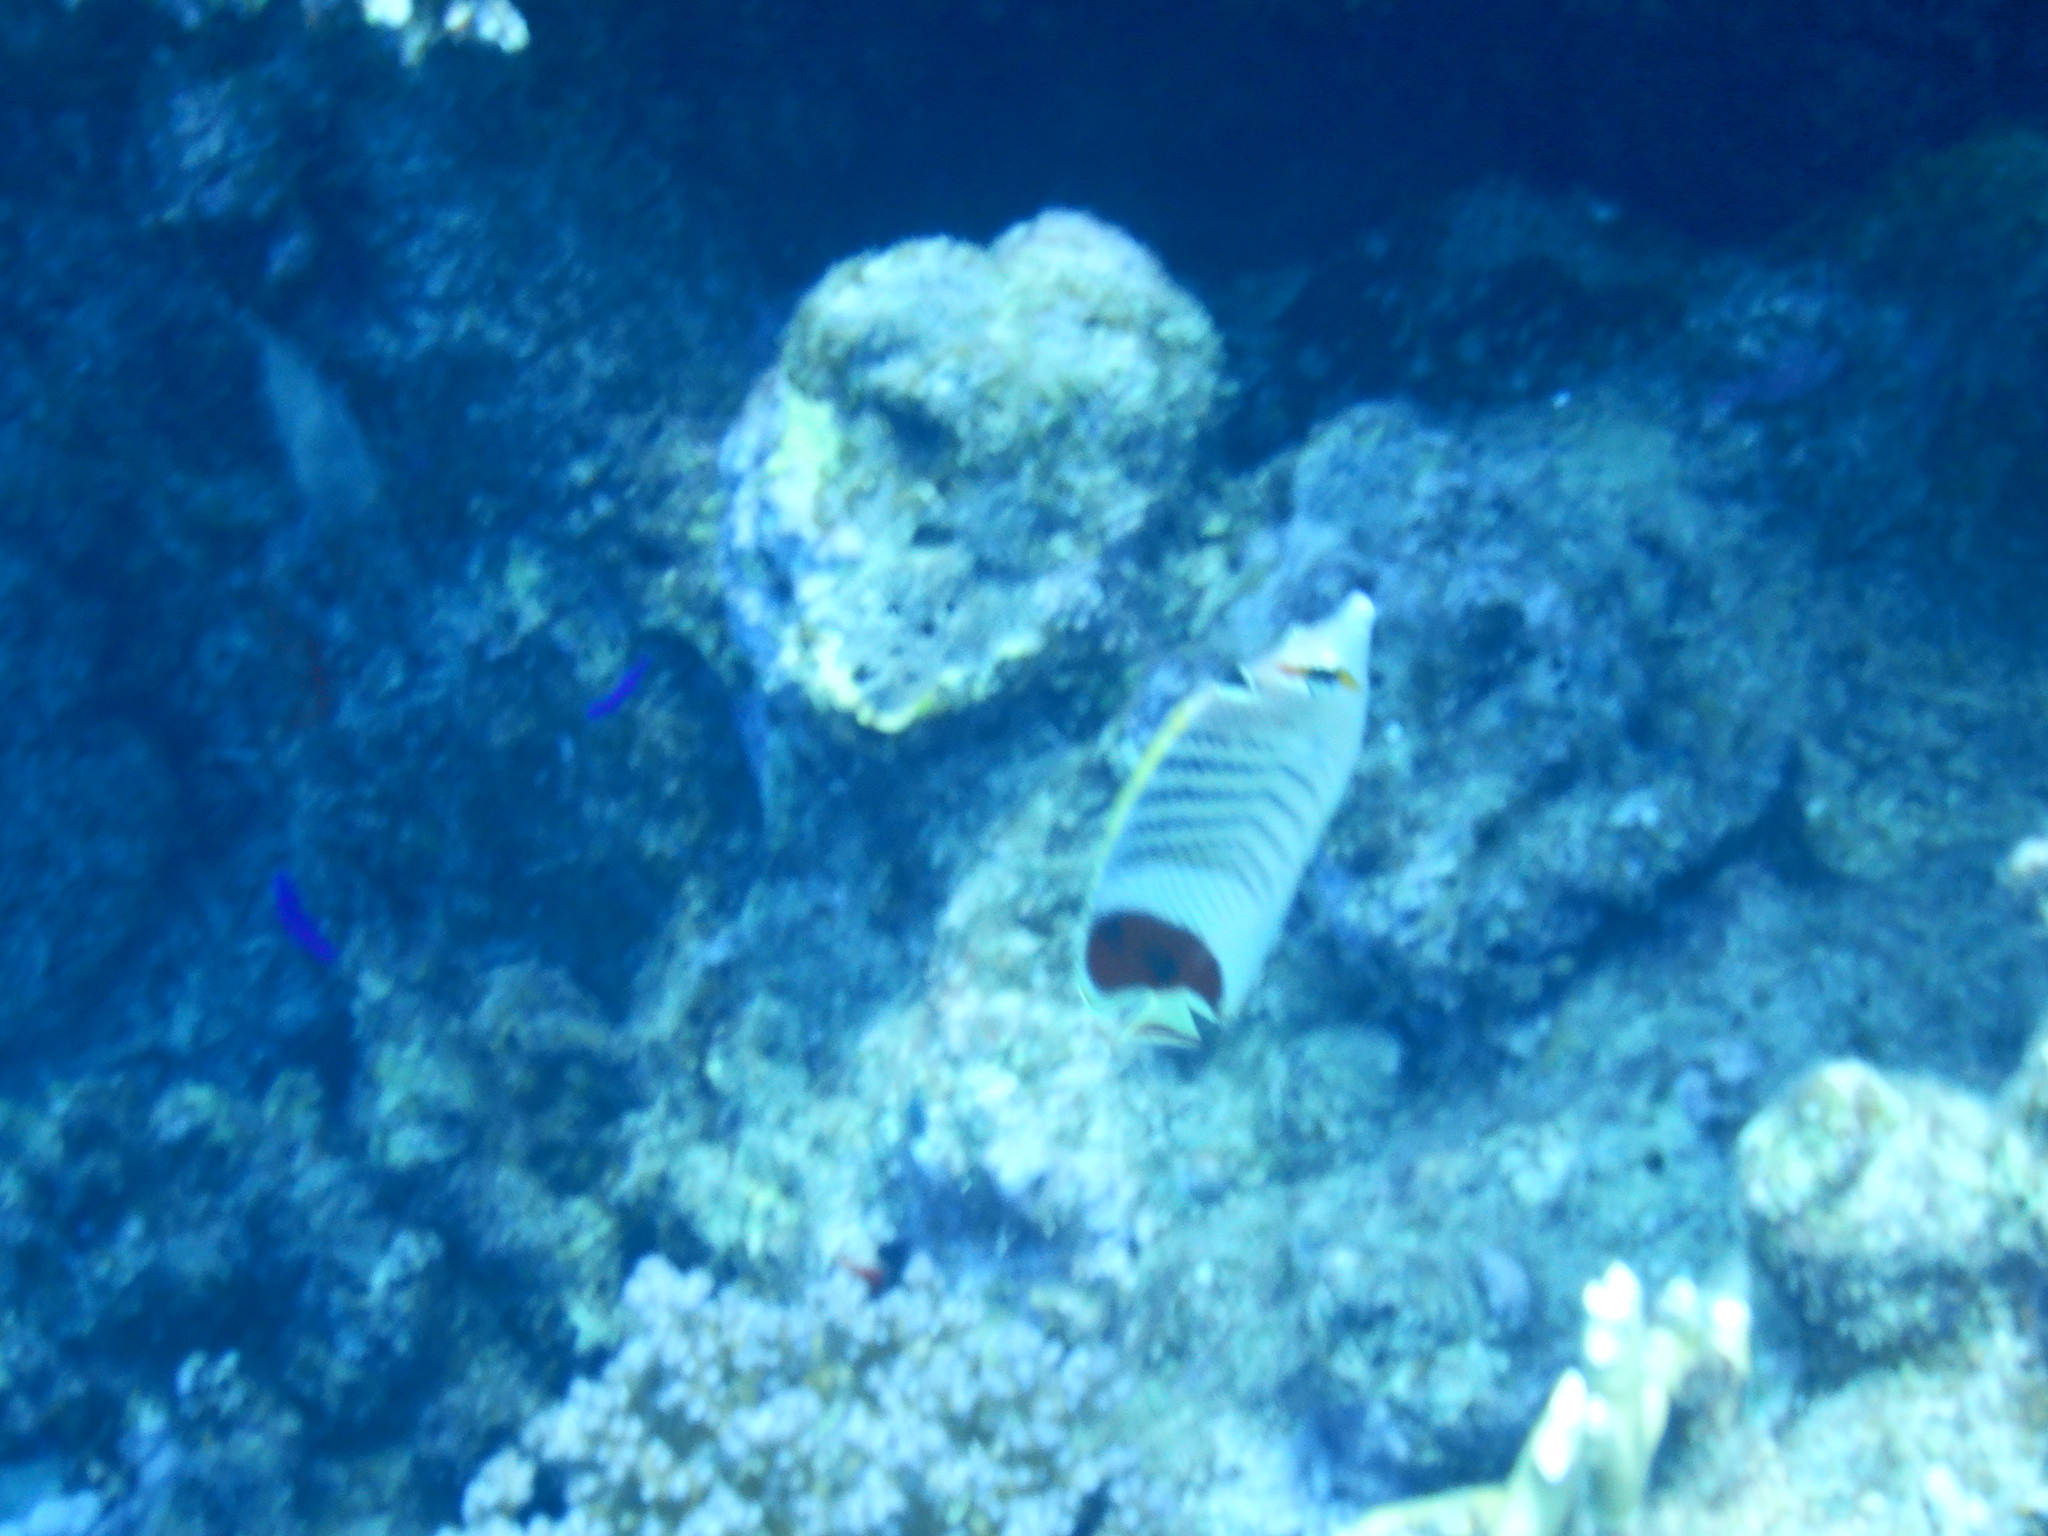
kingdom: Animalia
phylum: Chordata
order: Perciformes
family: Chaetodontidae
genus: Chaetodon
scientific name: Chaetodon paucifasciatus
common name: Crown butterflyfish
